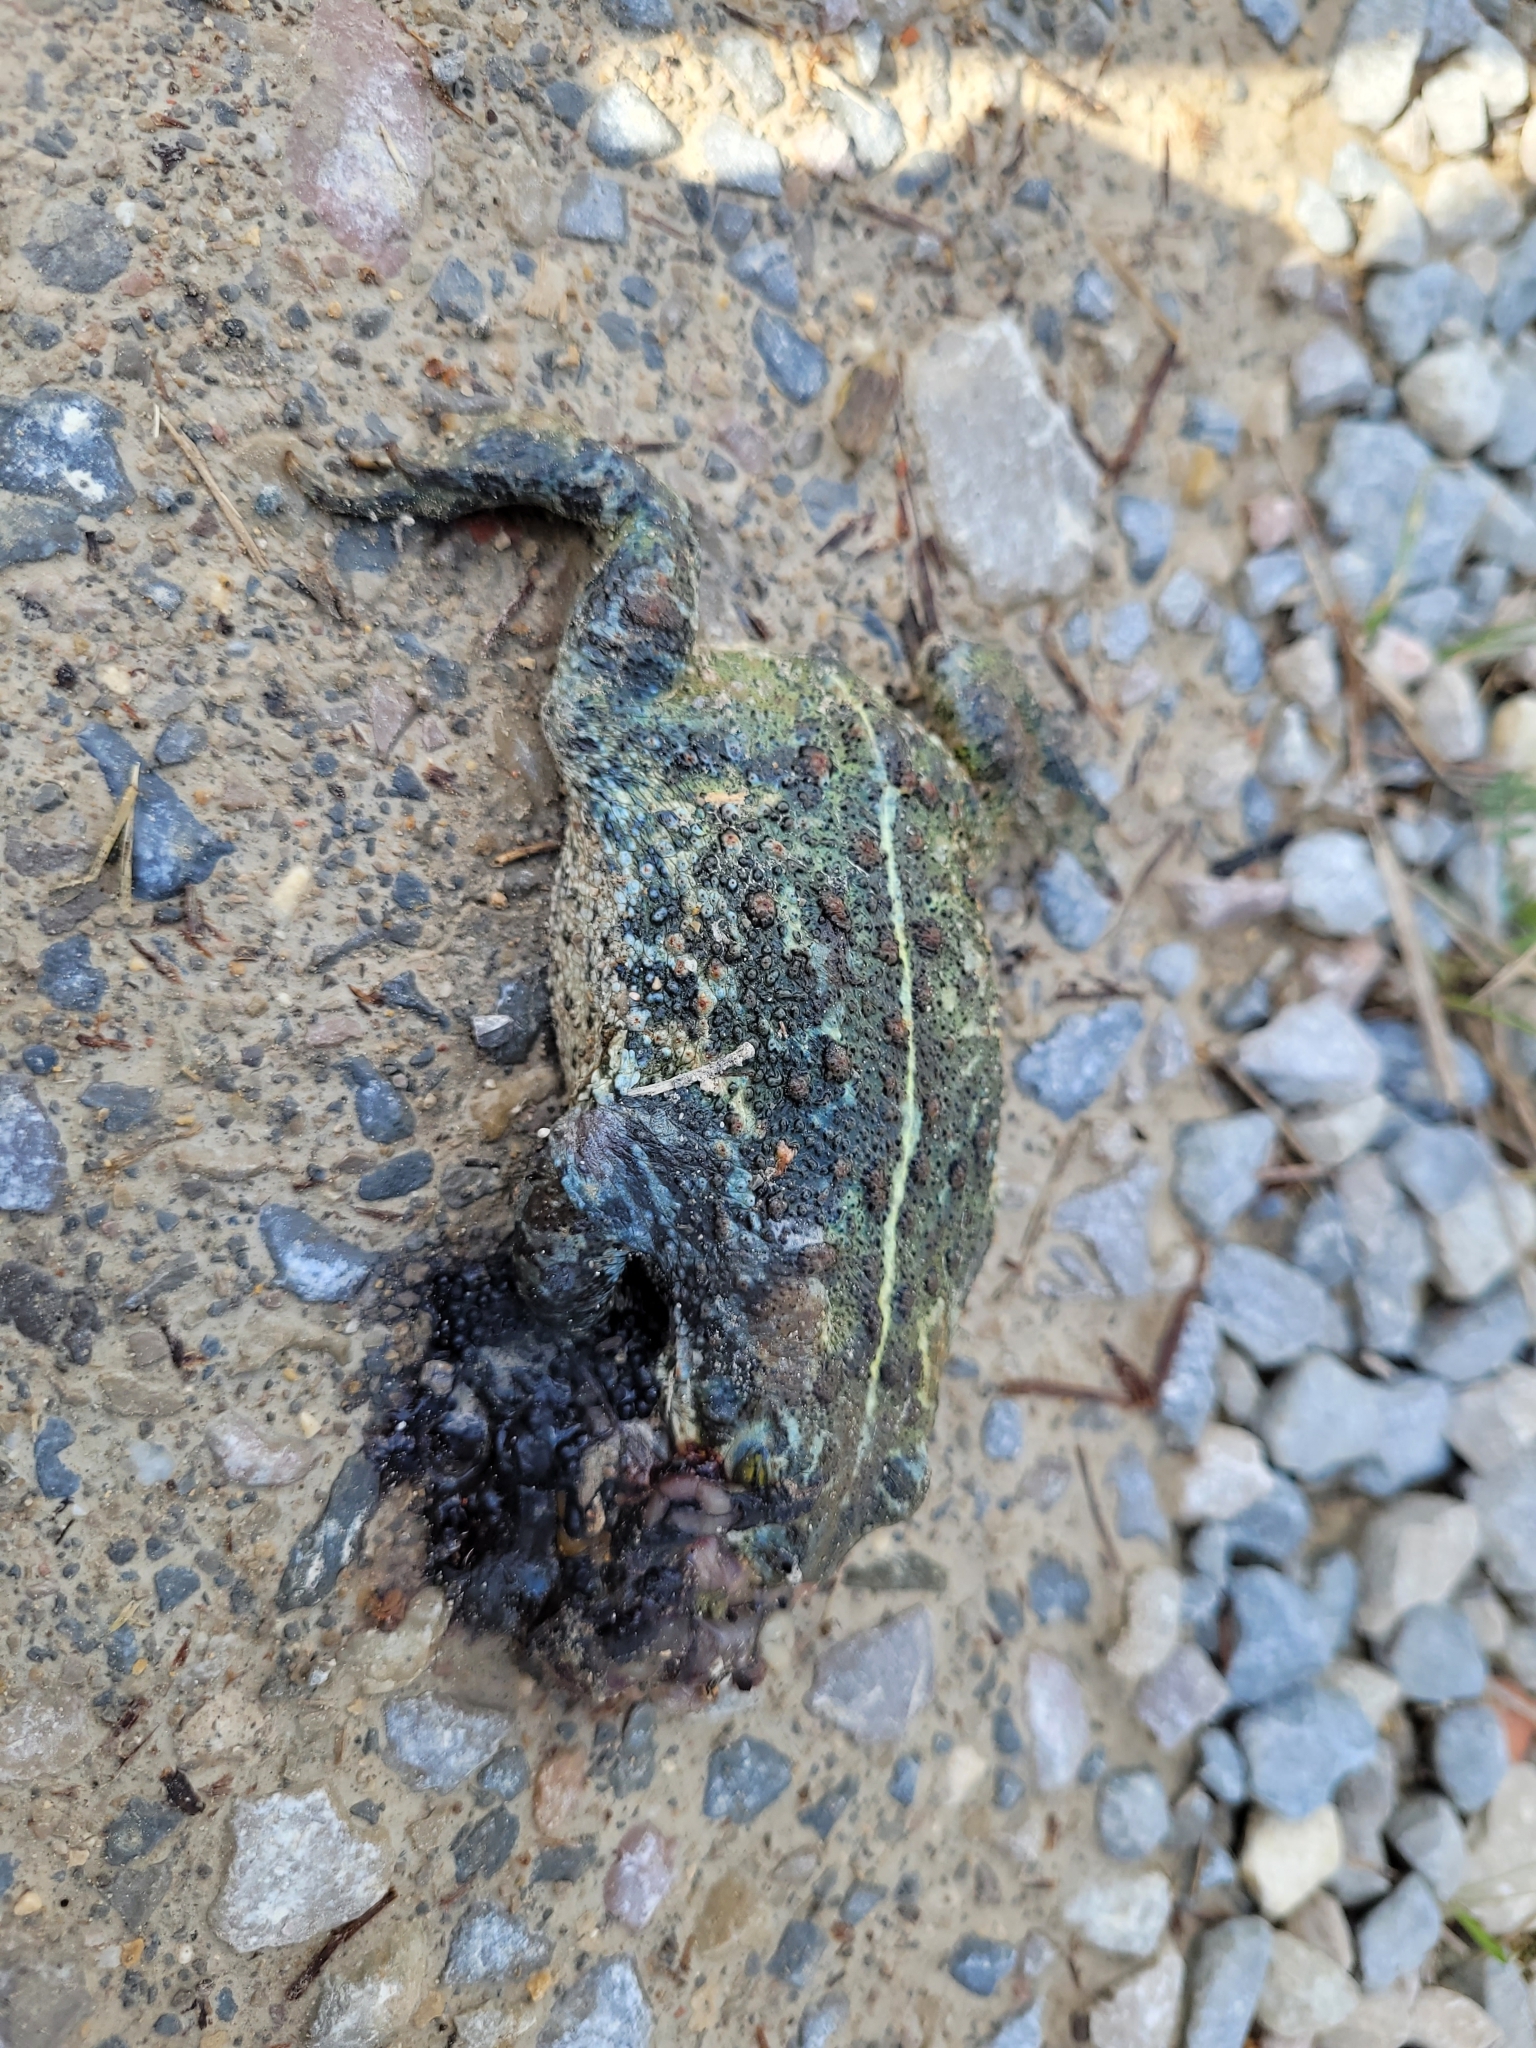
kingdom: Animalia
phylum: Chordata
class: Amphibia
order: Anura
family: Bufonidae
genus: Epidalea
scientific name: Epidalea calamita
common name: Natterjack toad
